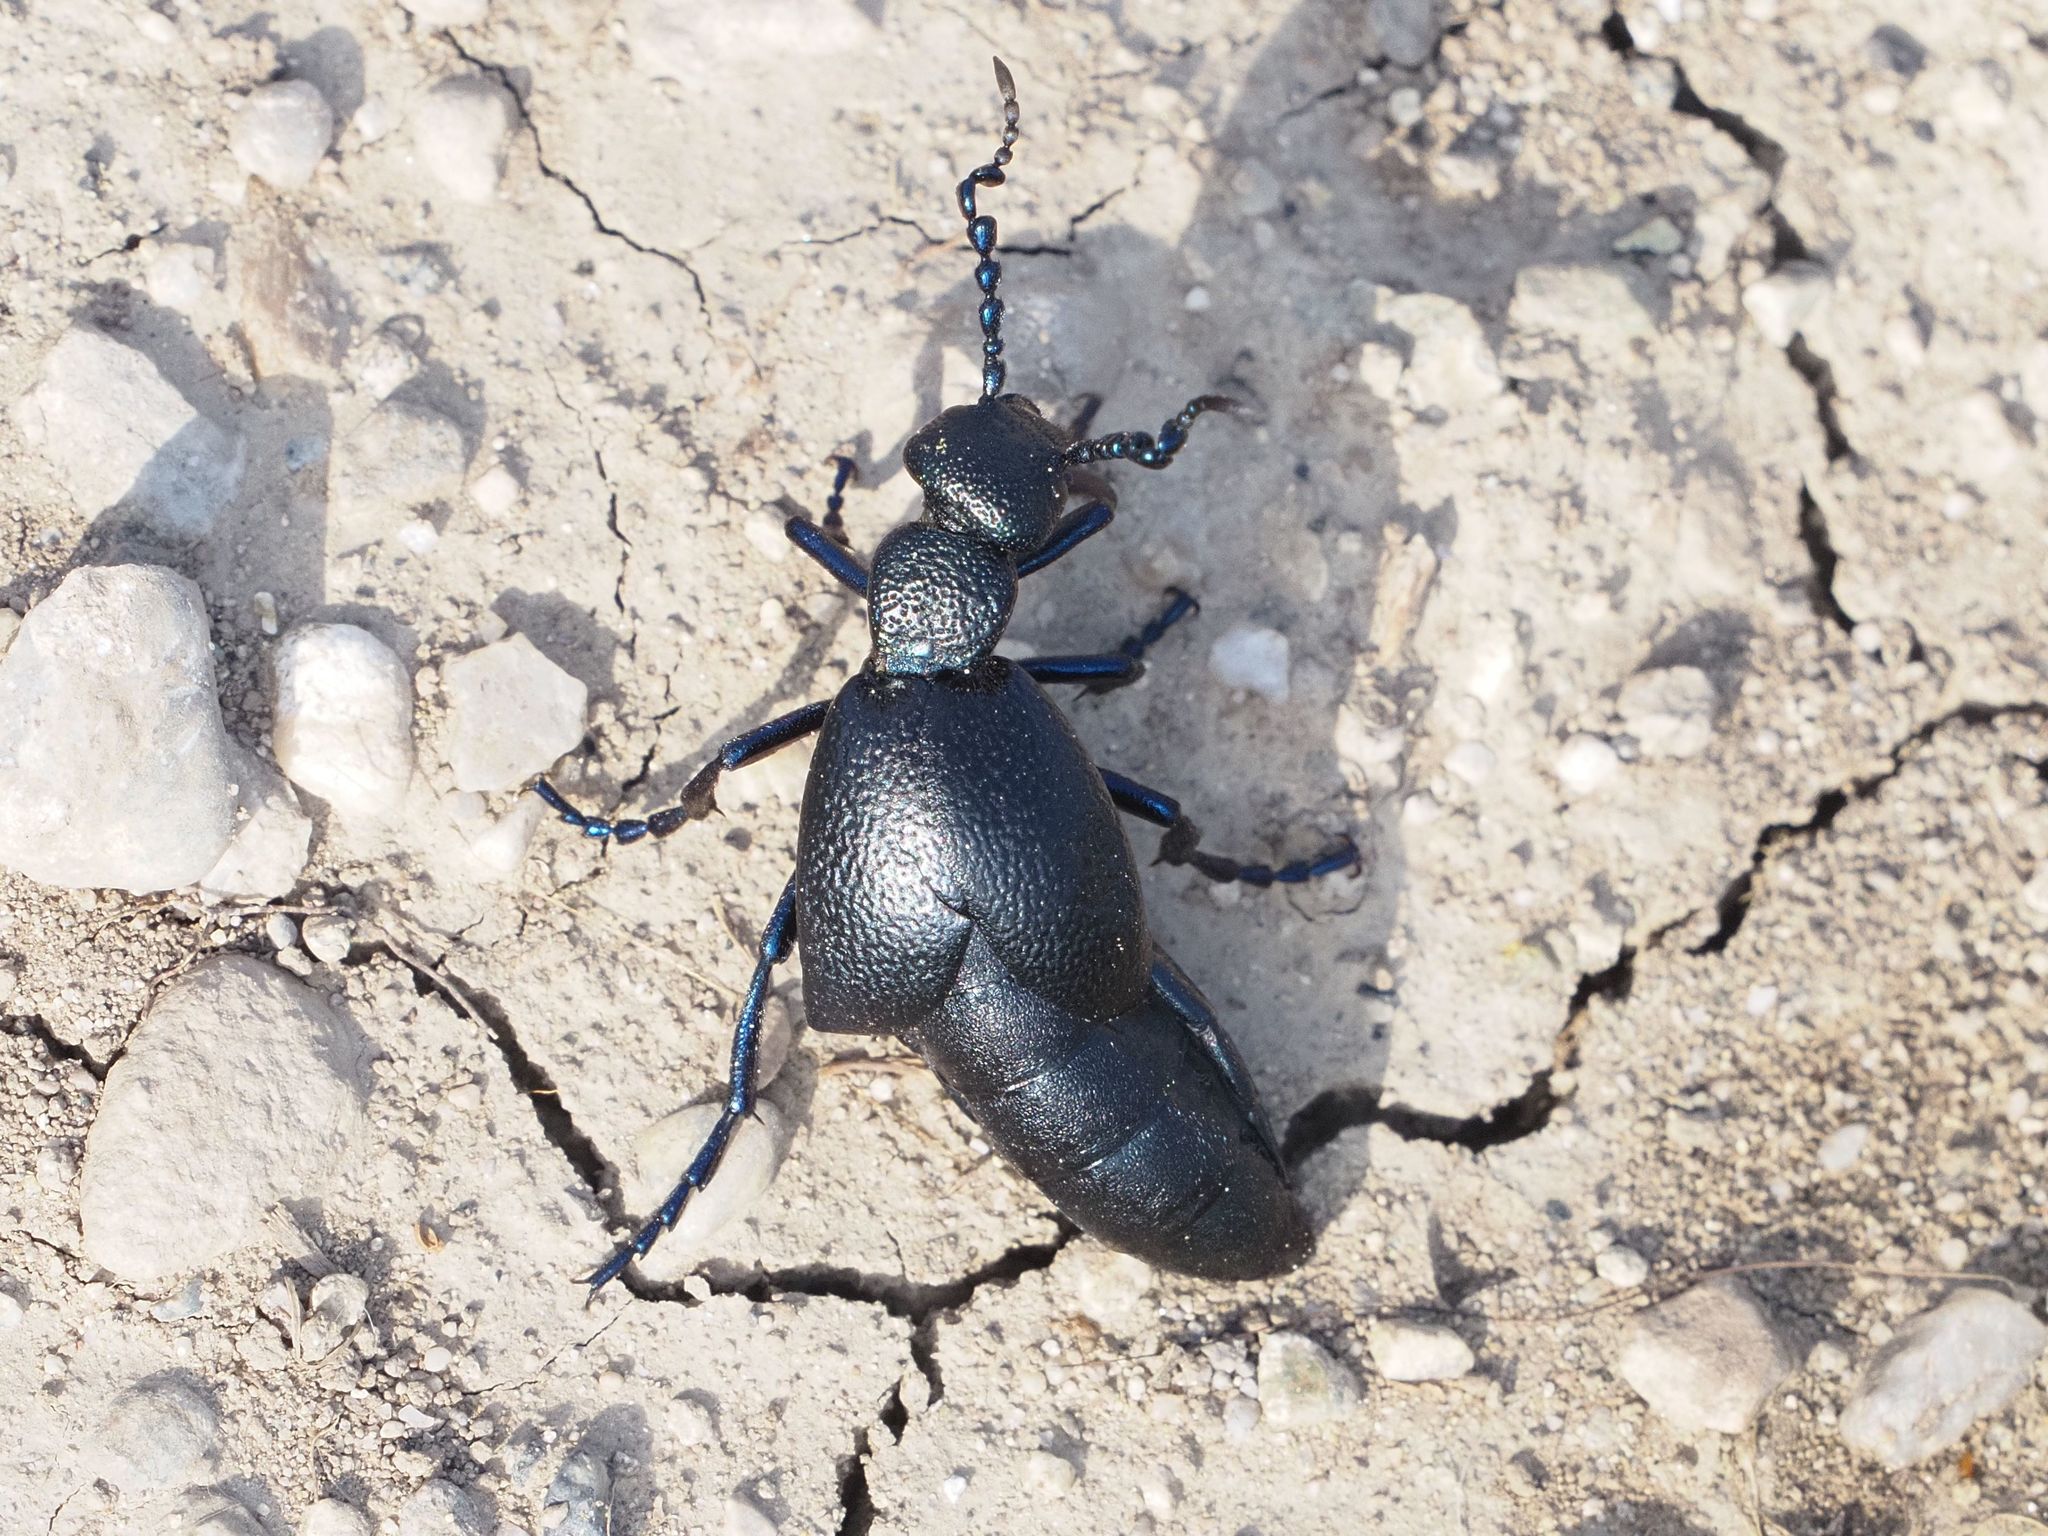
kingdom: Animalia
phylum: Arthropoda
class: Insecta
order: Coleoptera
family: Meloidae
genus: Meloe
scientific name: Meloe proscarabaeus
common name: Black oil-beetle
